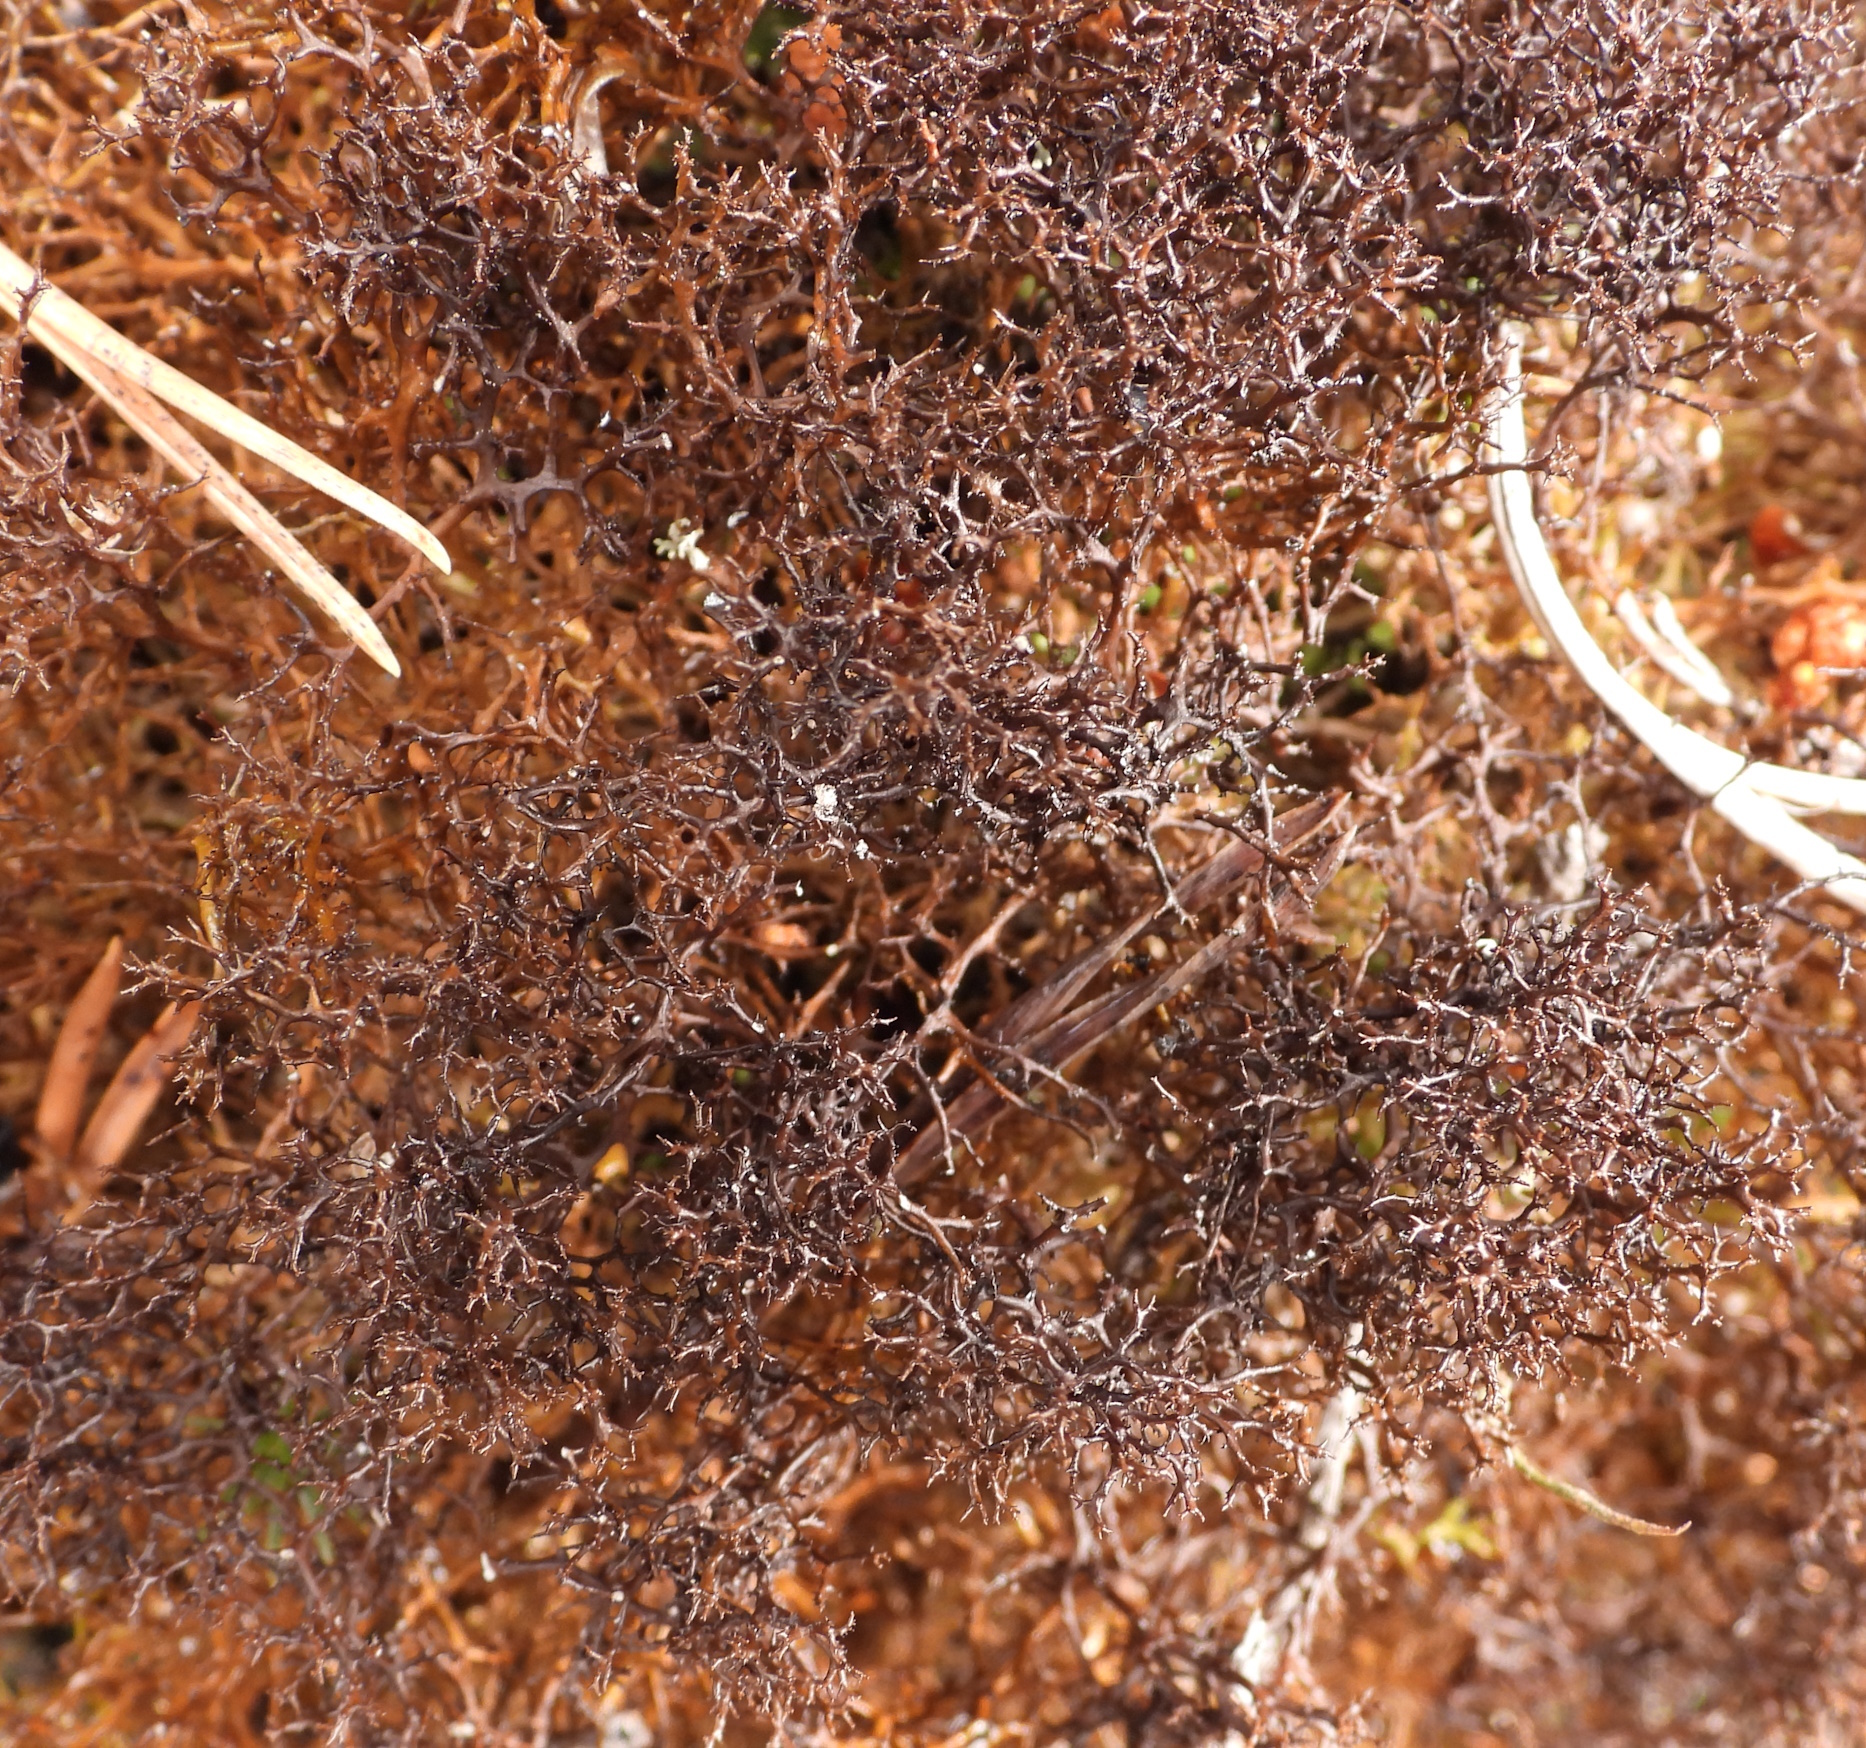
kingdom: Fungi
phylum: Ascomycota
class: Lecanoromycetes
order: Lecanorales
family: Parmeliaceae
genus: Cetraria
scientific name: Cetraria muricata
